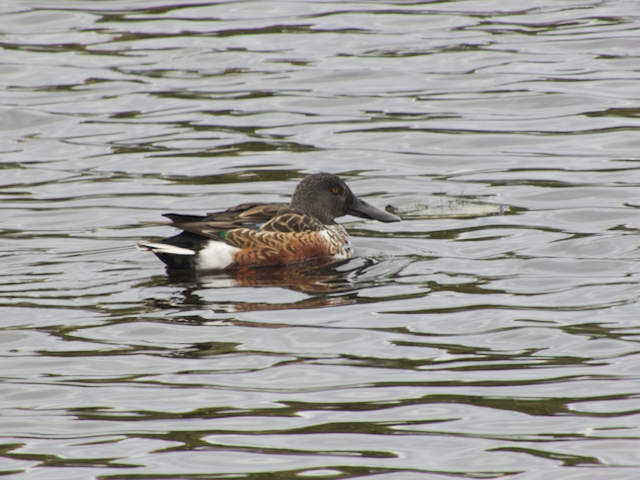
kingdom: Animalia
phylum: Chordata
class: Aves
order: Anseriformes
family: Anatidae
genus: Spatula
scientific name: Spatula clypeata
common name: Northern shoveler
